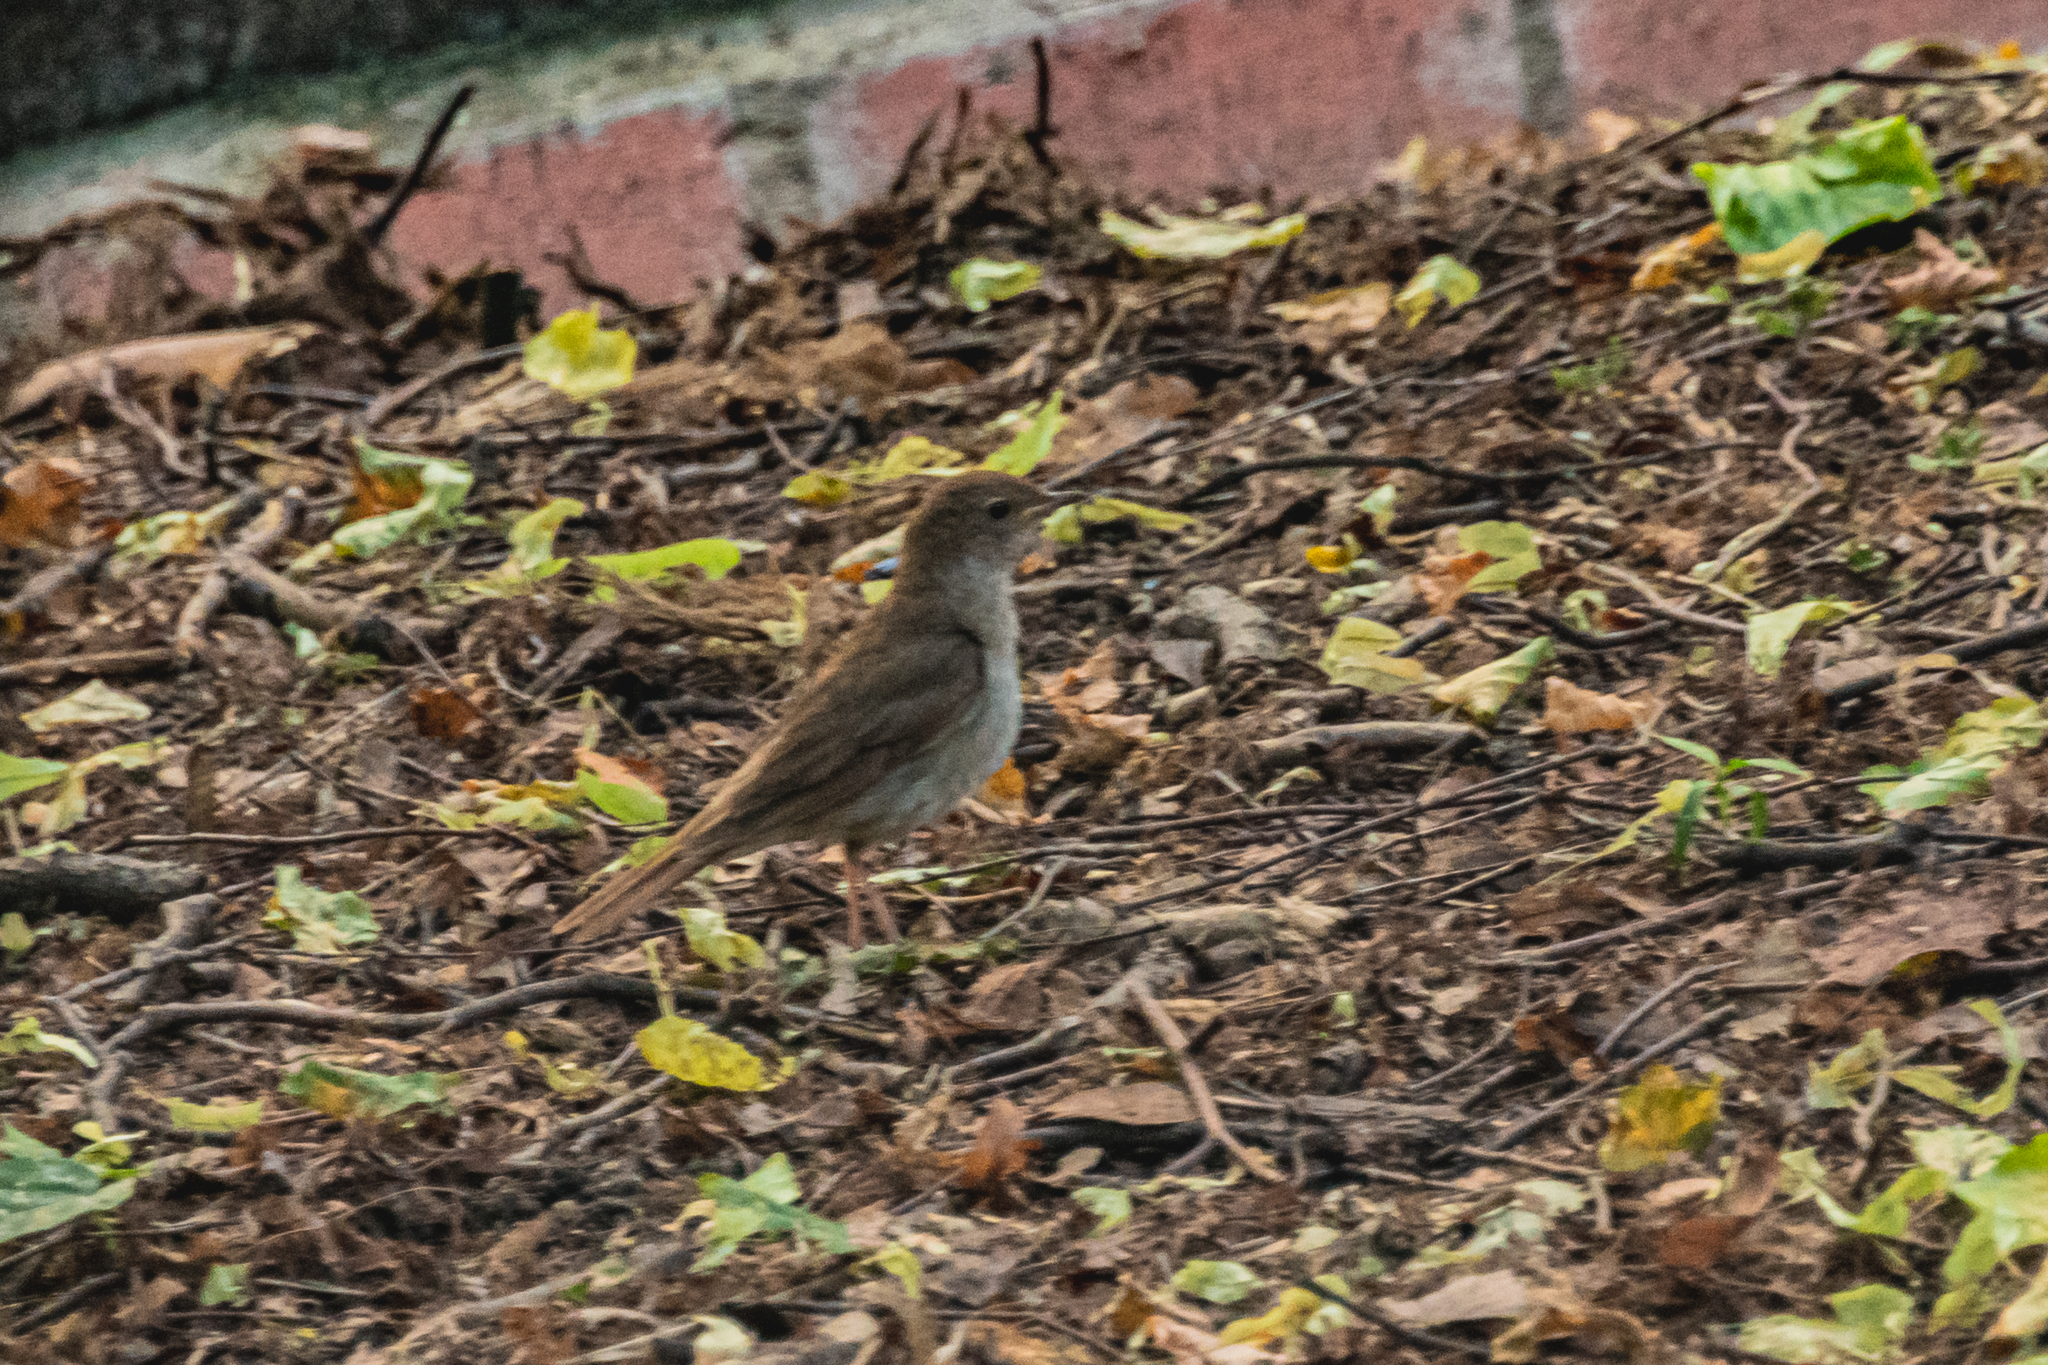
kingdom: Animalia
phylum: Chordata
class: Aves
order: Passeriformes
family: Muscicapidae
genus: Luscinia
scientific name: Luscinia luscinia
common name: Thrush nightingale
